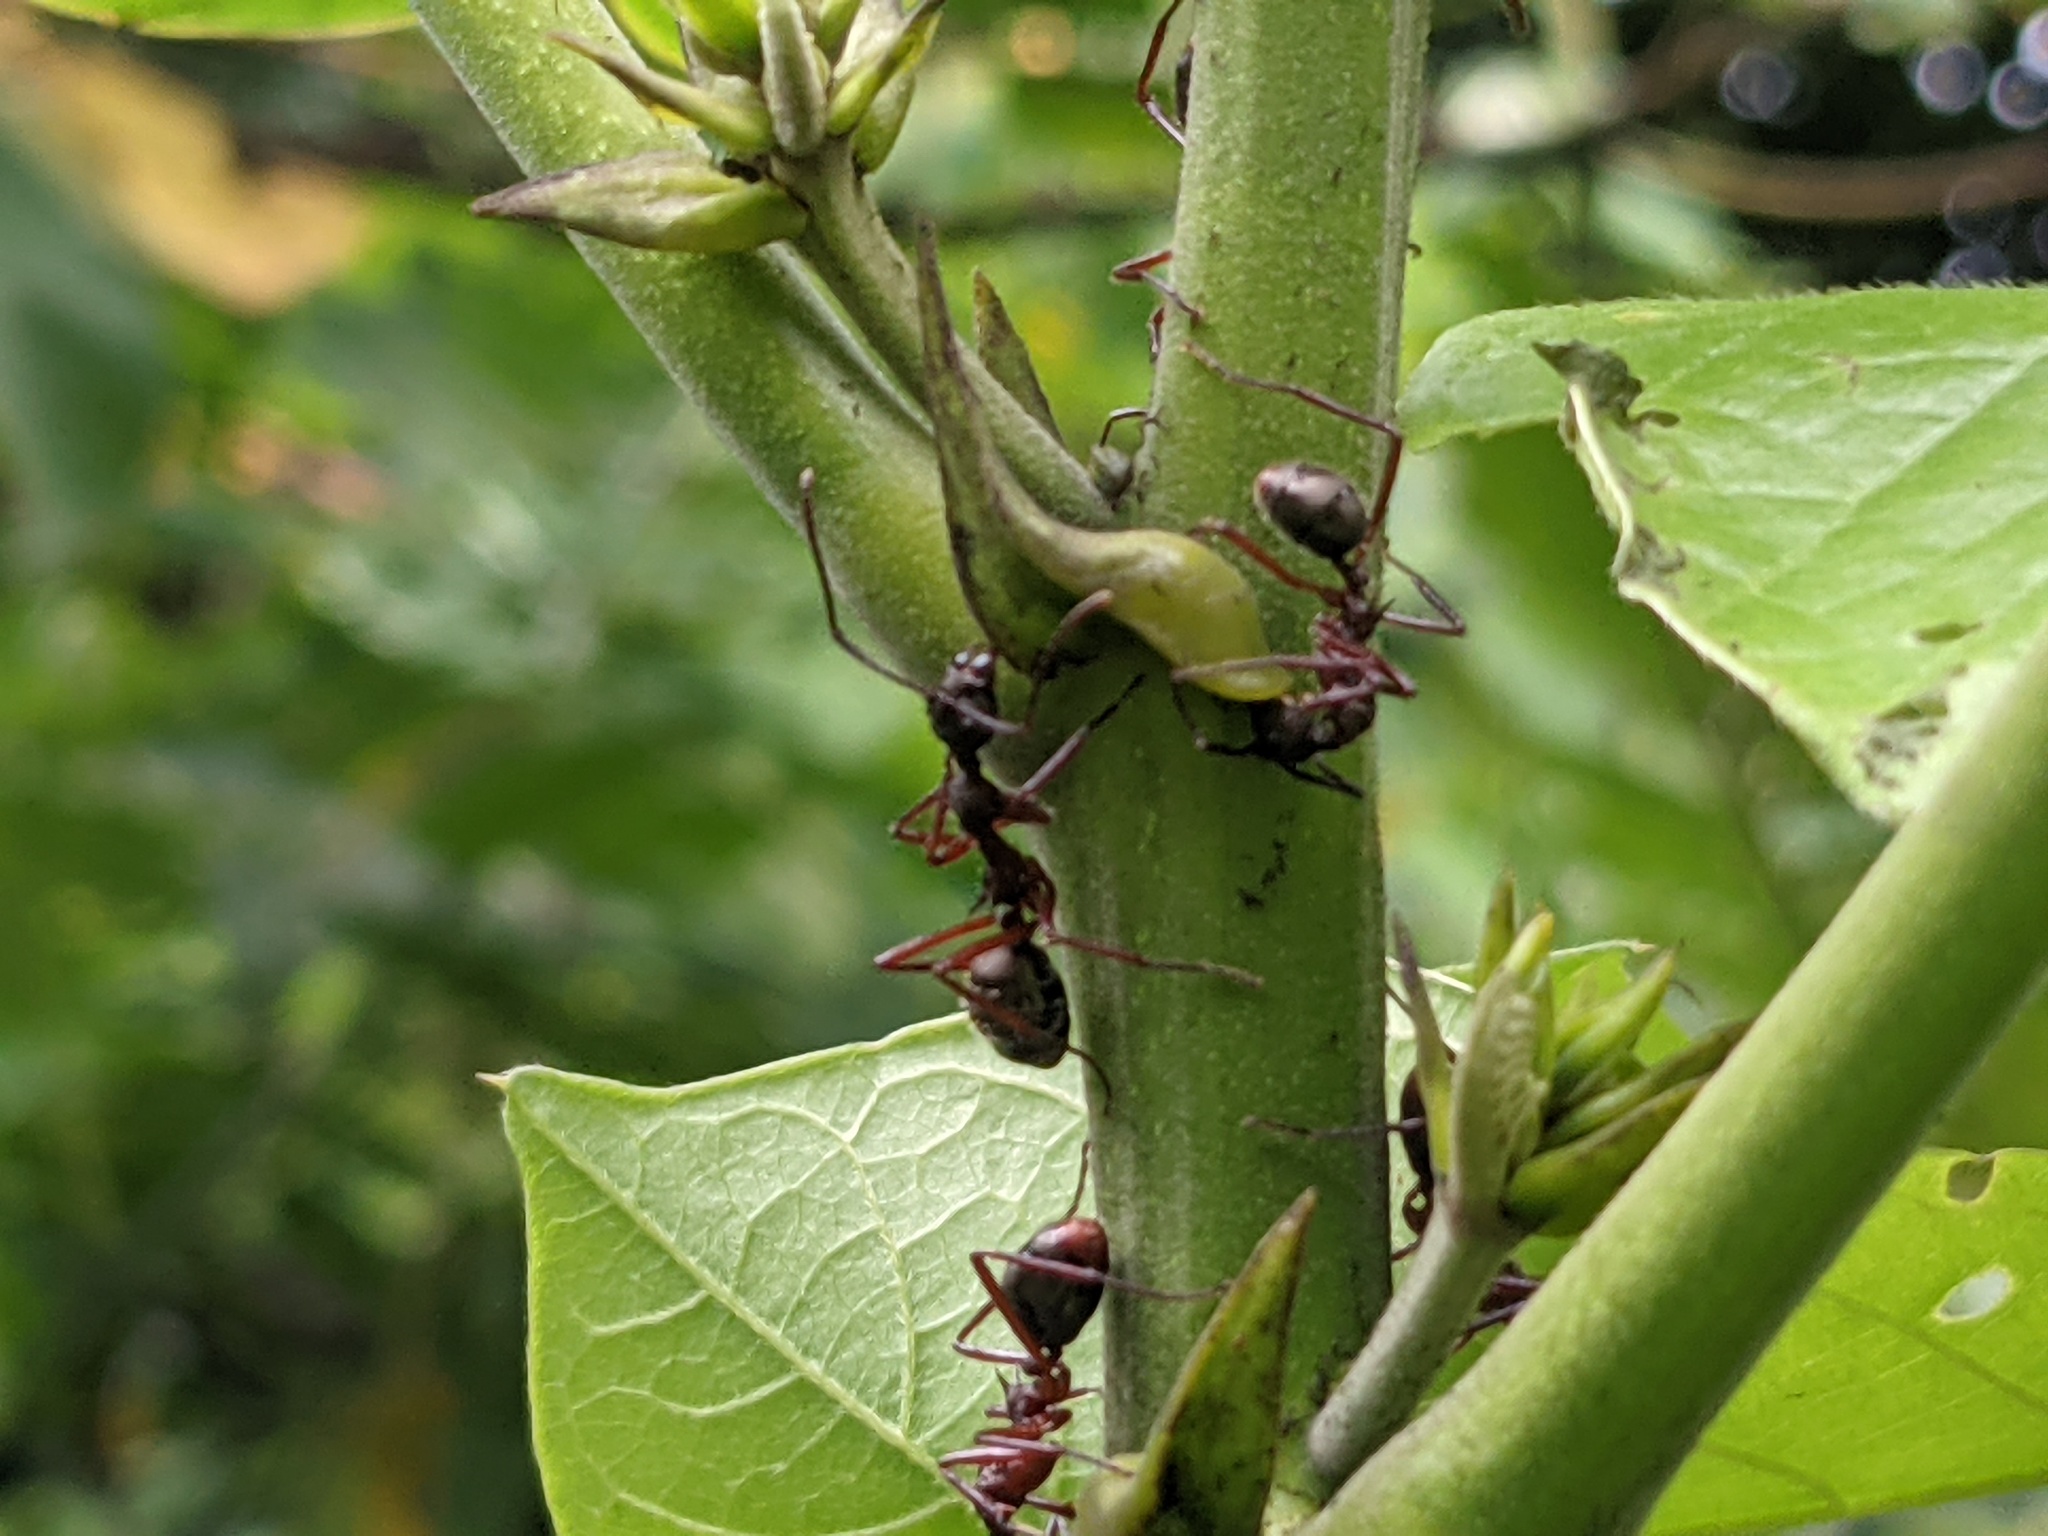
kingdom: Animalia
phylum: Arthropoda
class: Insecta
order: Hymenoptera
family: Formicidae
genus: Dolichoderus
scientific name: Dolichoderus attelaboides
